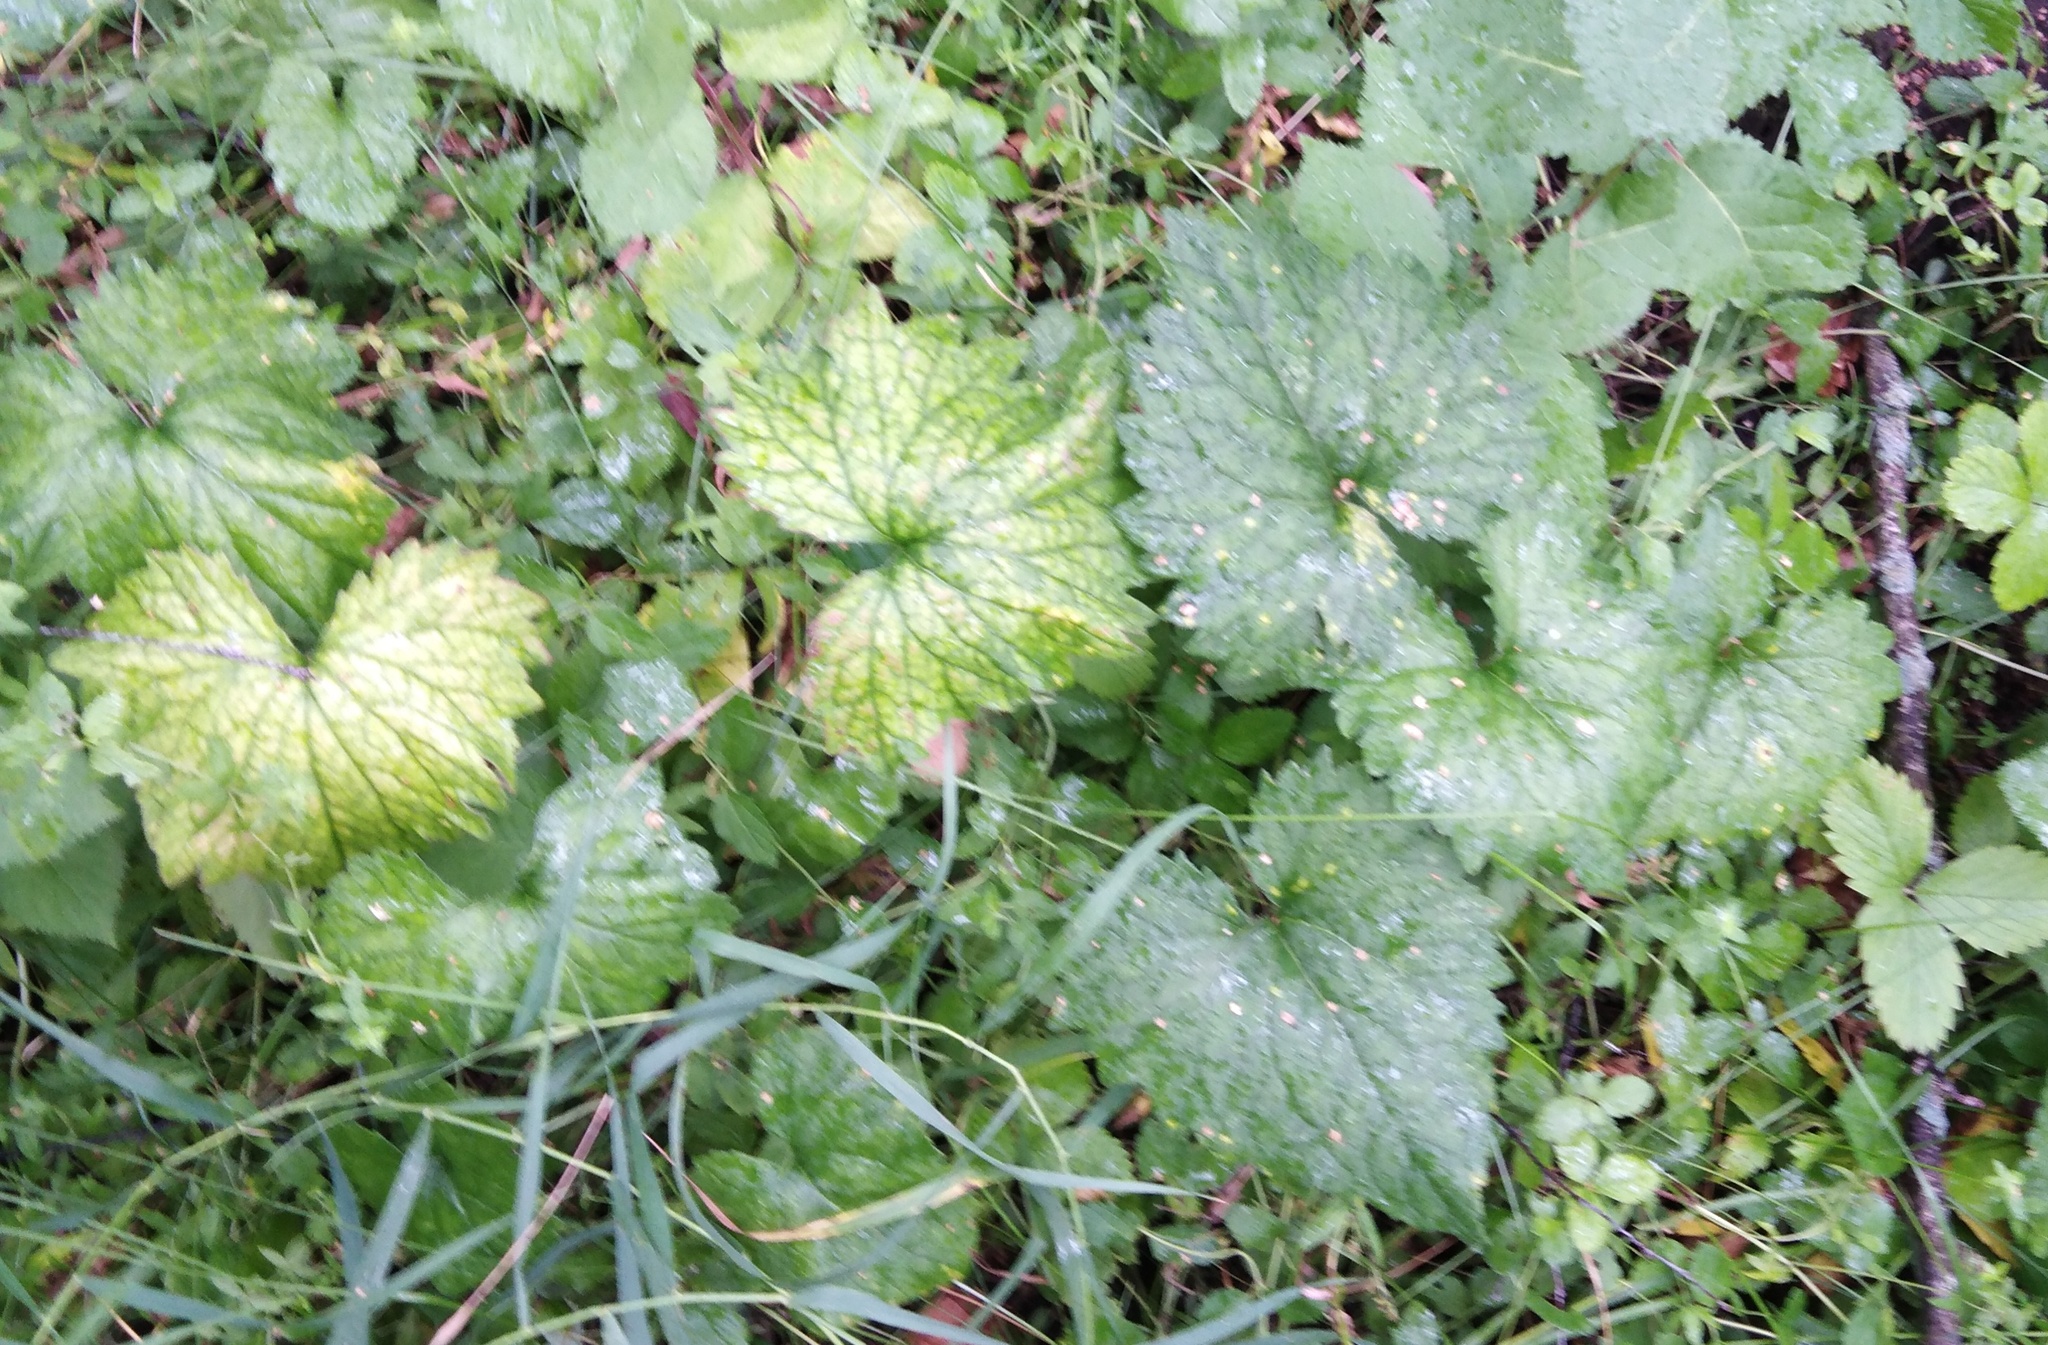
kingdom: Plantae
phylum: Tracheophyta
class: Magnoliopsida
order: Asterales
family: Campanulaceae
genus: Campanula
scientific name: Campanula trachelium
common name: Nettle-leaved bellflower
